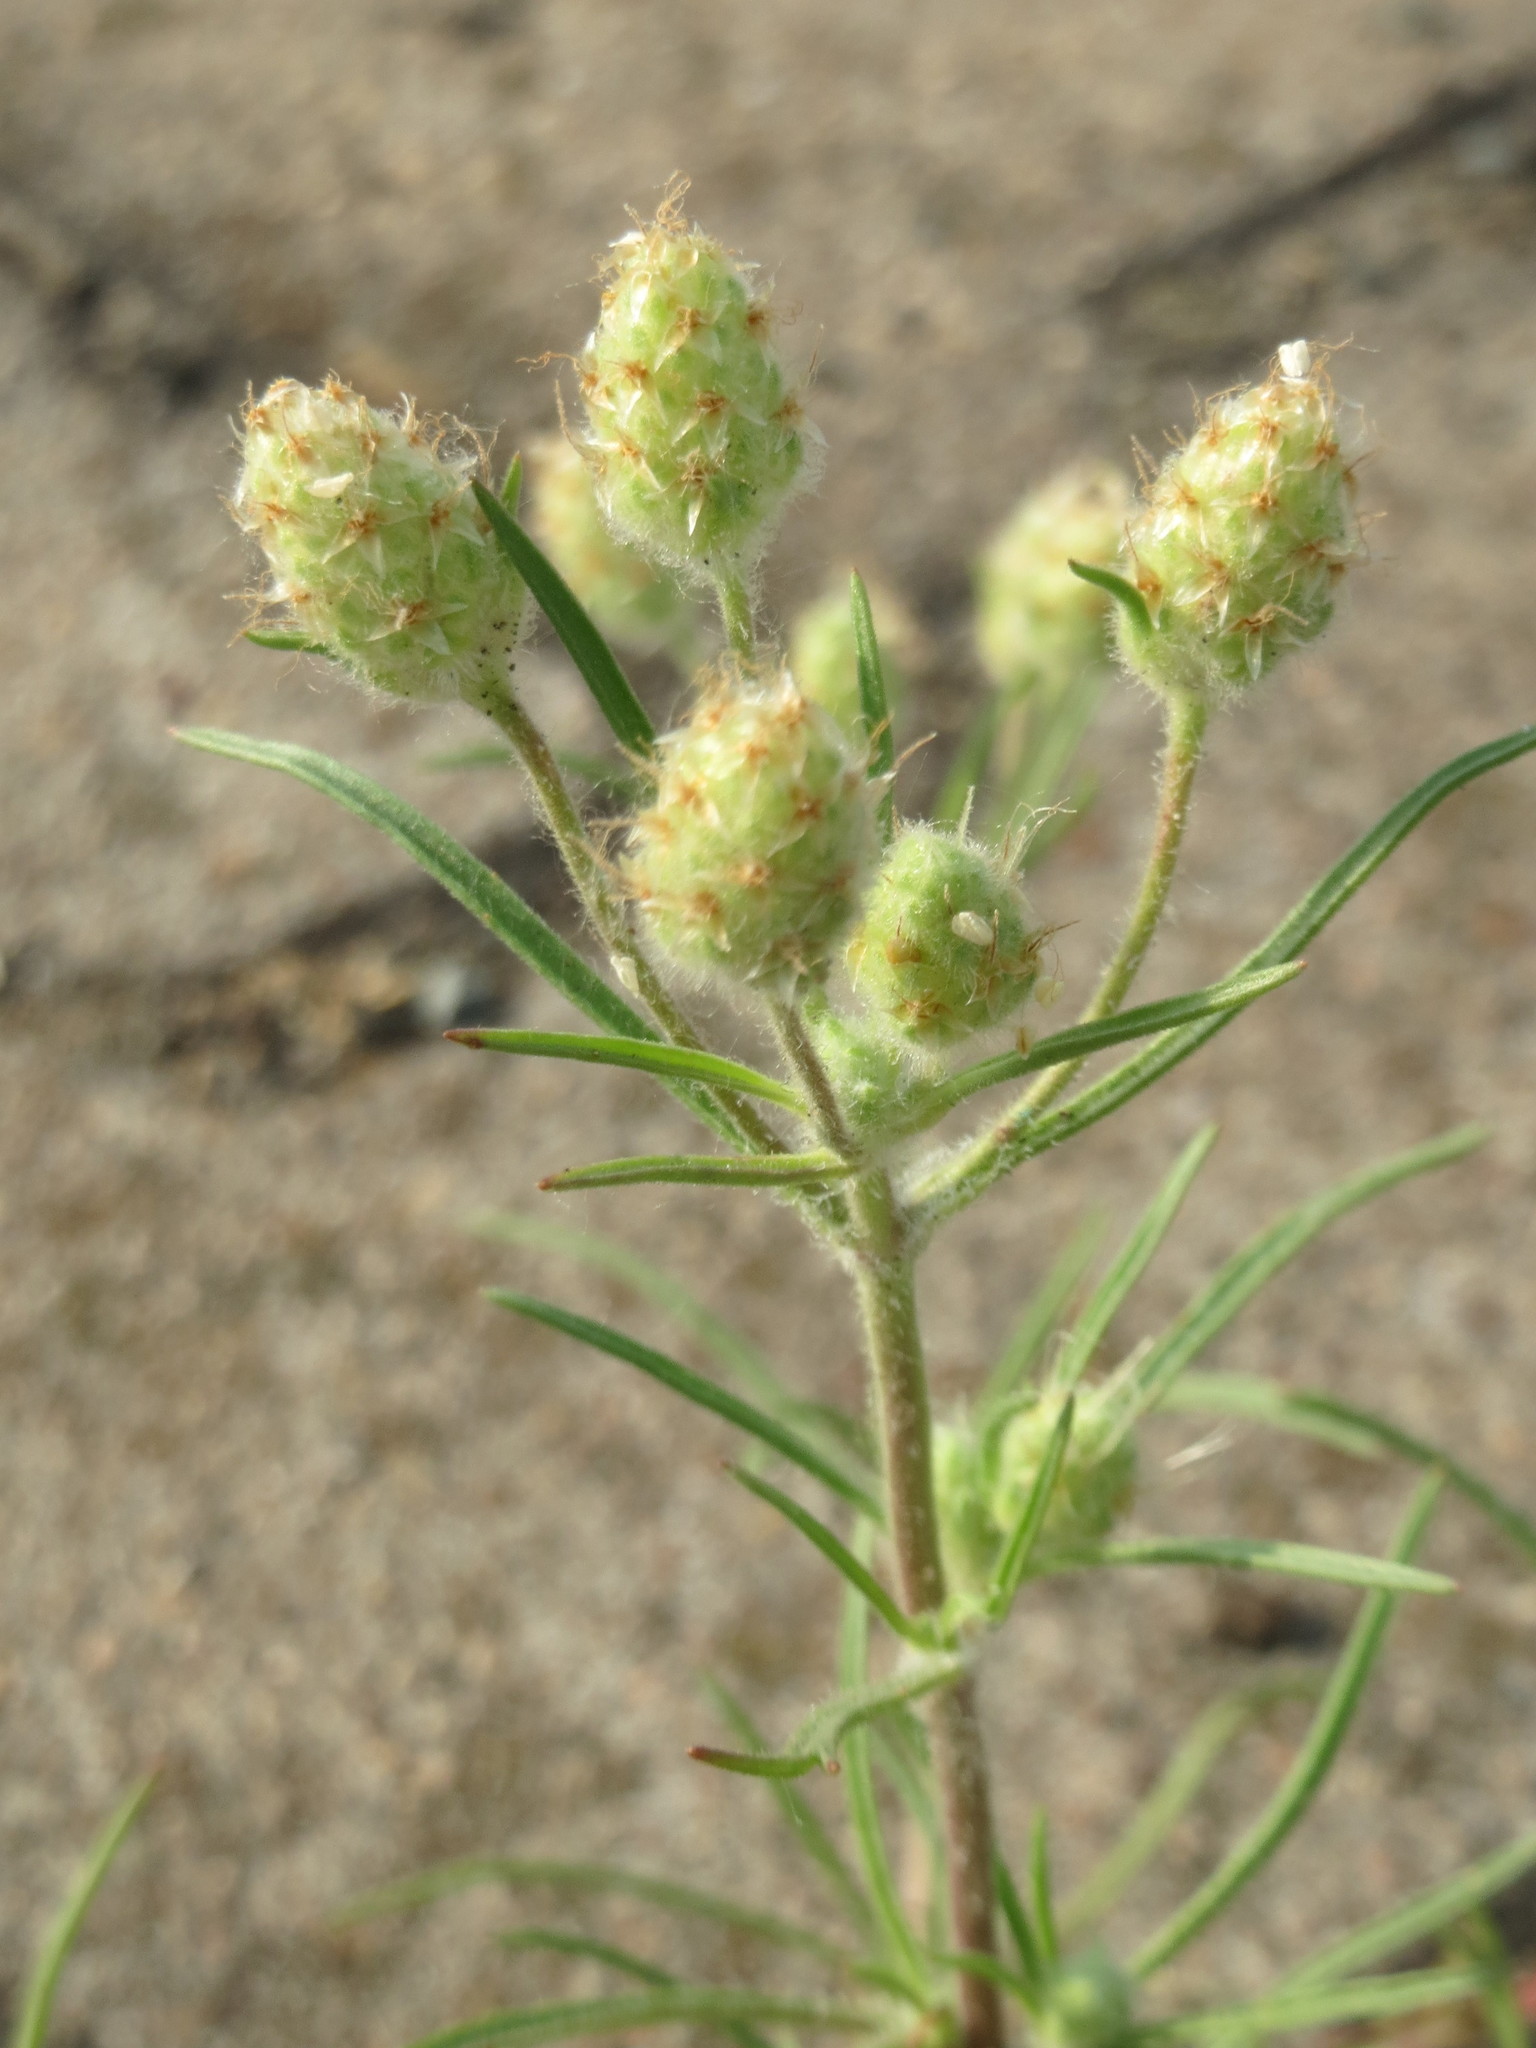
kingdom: Plantae
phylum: Tracheophyta
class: Magnoliopsida
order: Lamiales
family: Plantaginaceae
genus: Plantago
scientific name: Plantago arenaria
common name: Branched plantain
